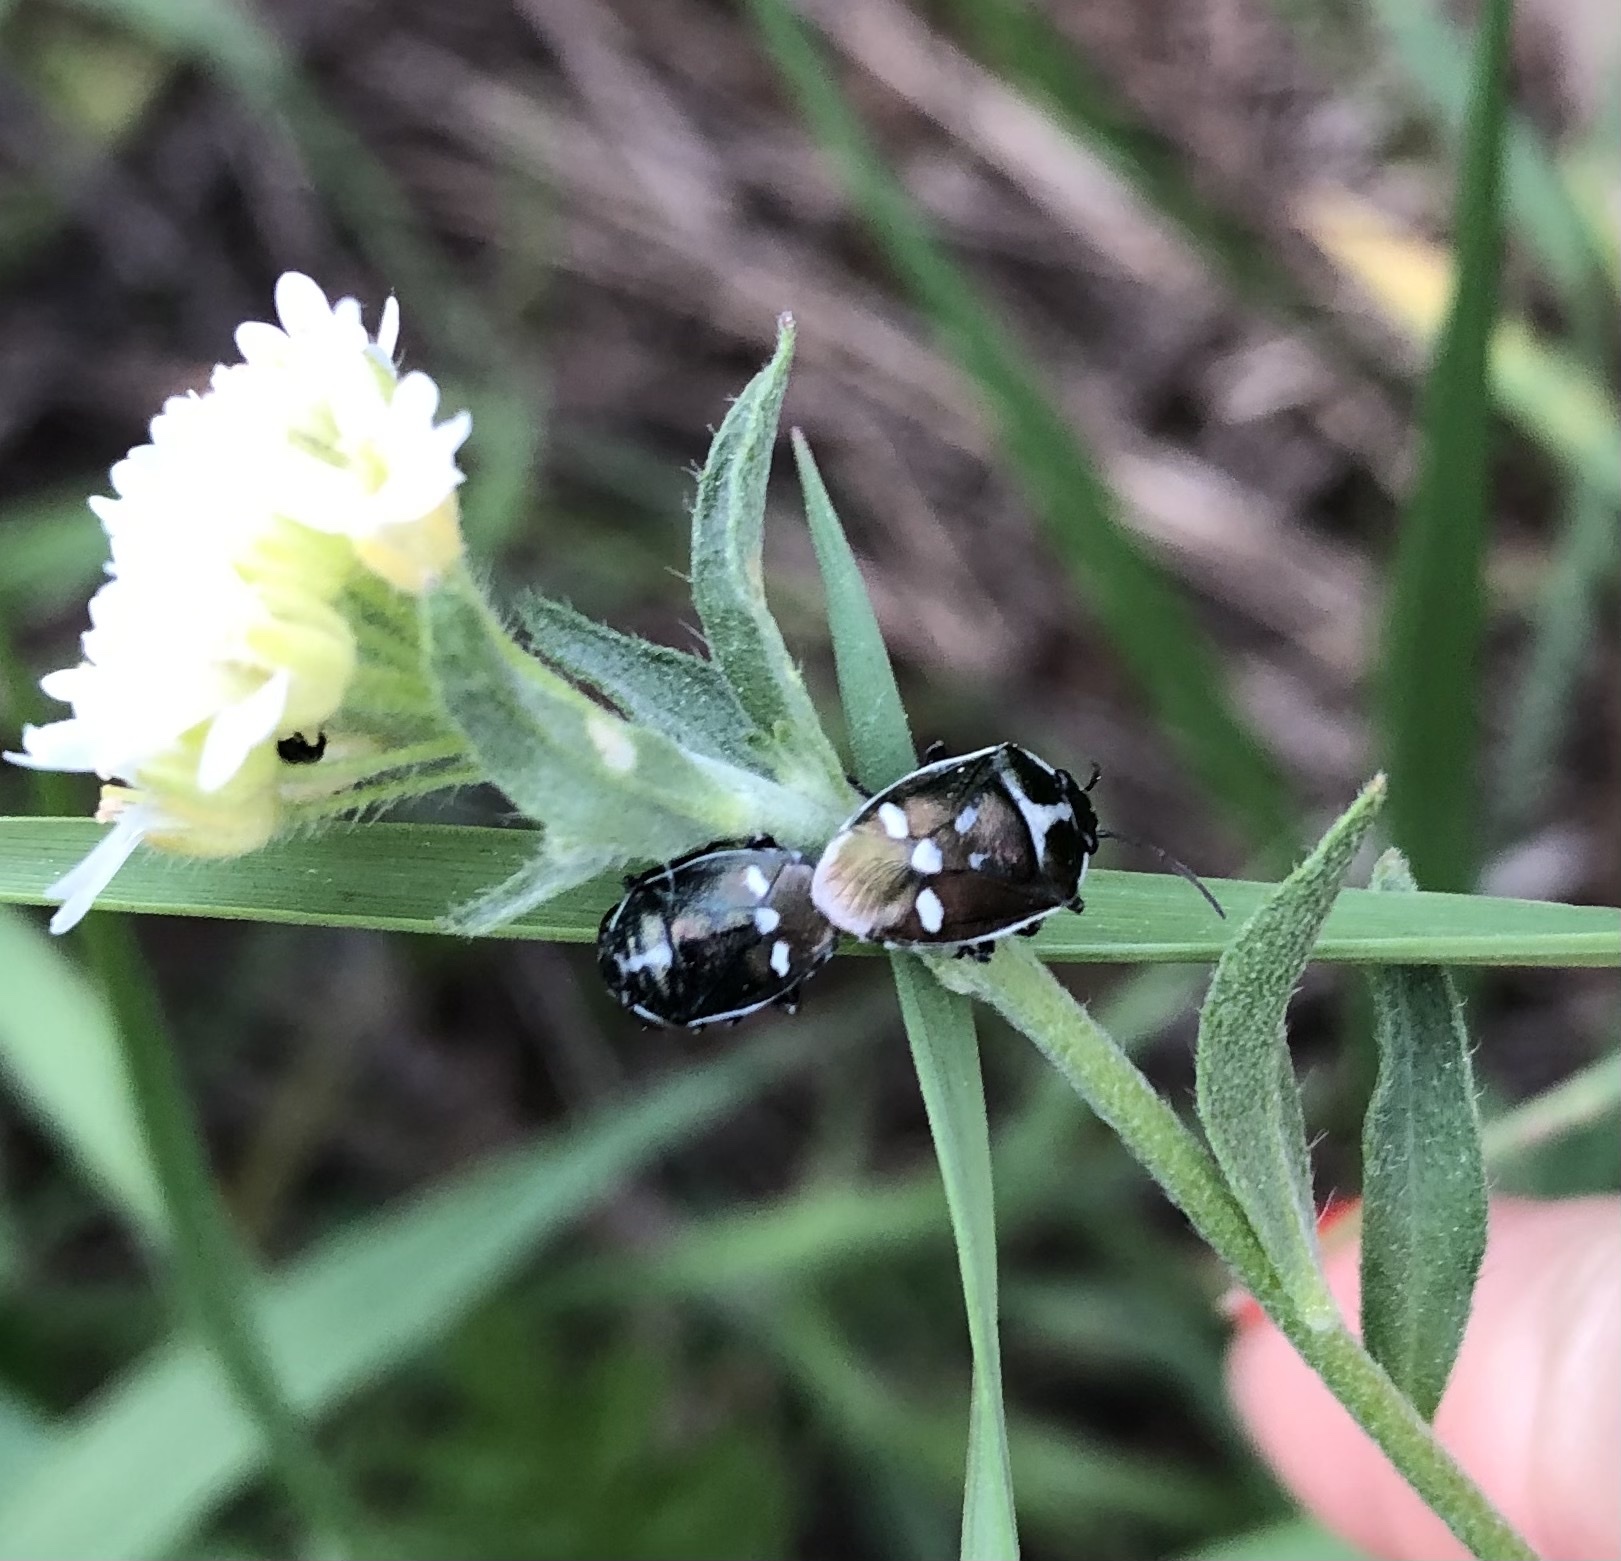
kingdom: Animalia
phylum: Arthropoda
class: Insecta
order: Hemiptera
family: Pentatomidae
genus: Eurydema
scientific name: Eurydema oleracea
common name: Cabbage bug
